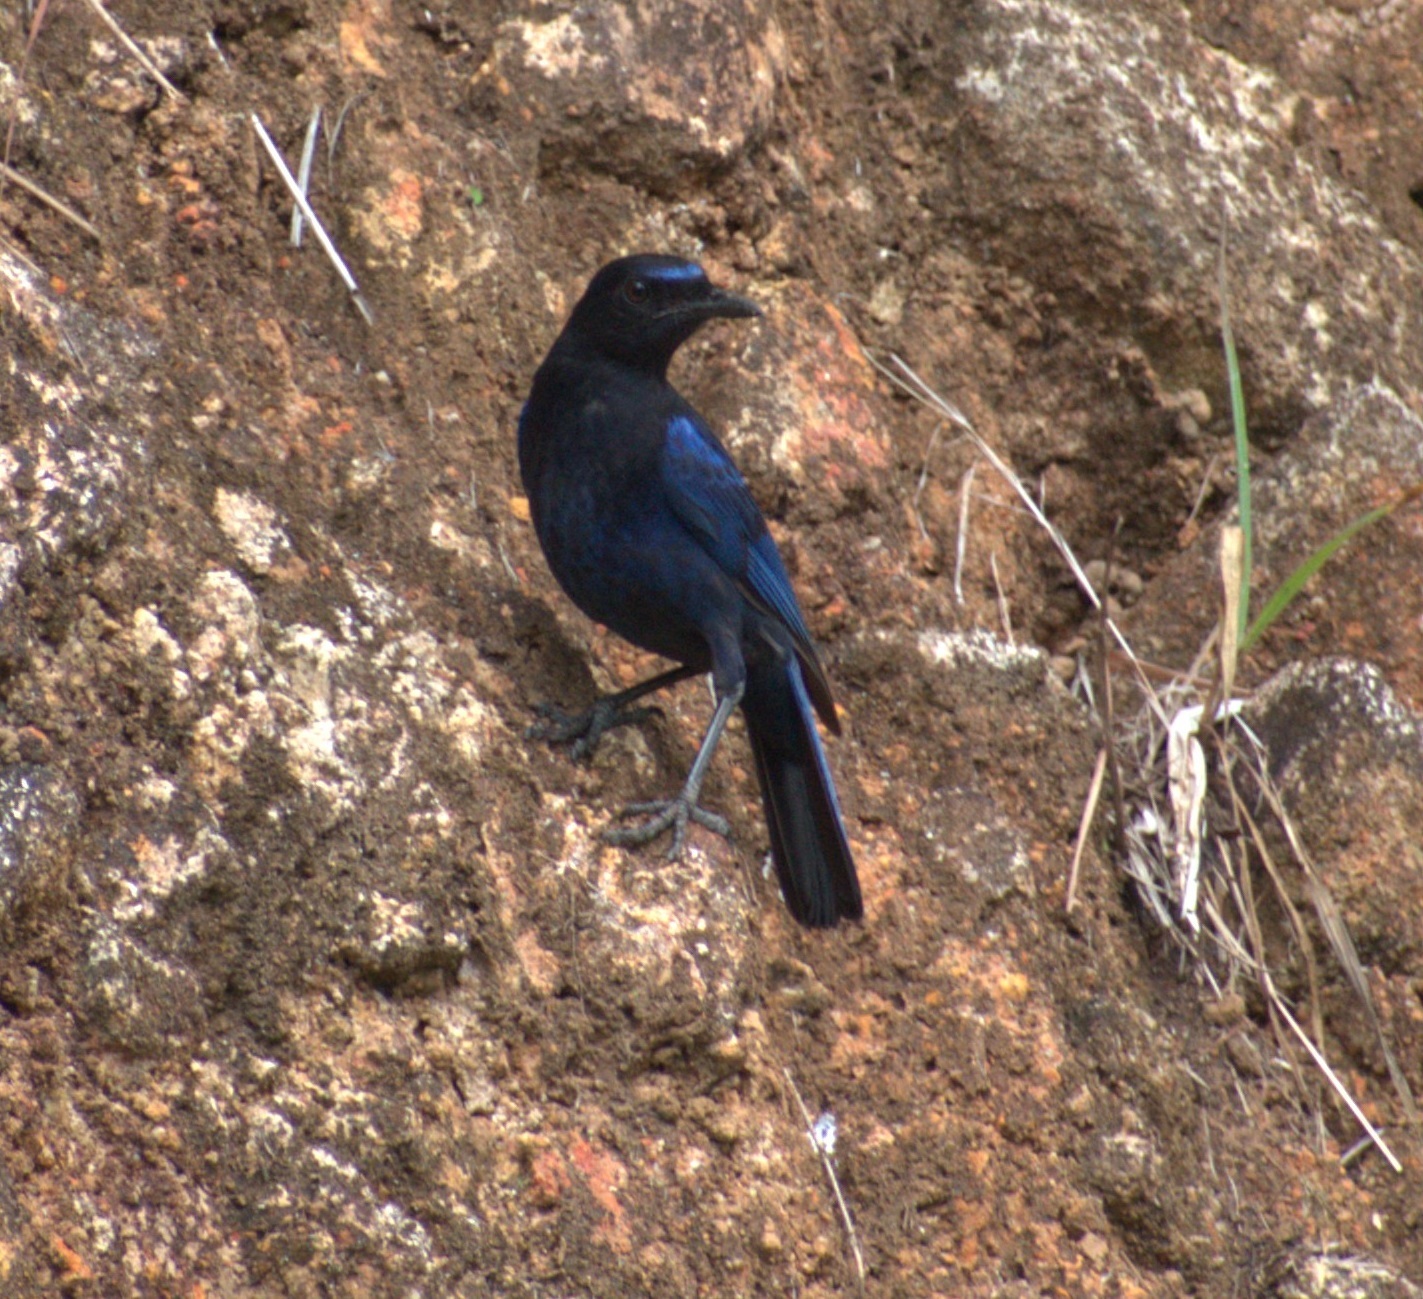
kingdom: Animalia
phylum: Chordata
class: Aves
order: Passeriformes
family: Muscicapidae
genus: Myophonus
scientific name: Myophonus horsfieldii
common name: Malabar whistling-thrush
